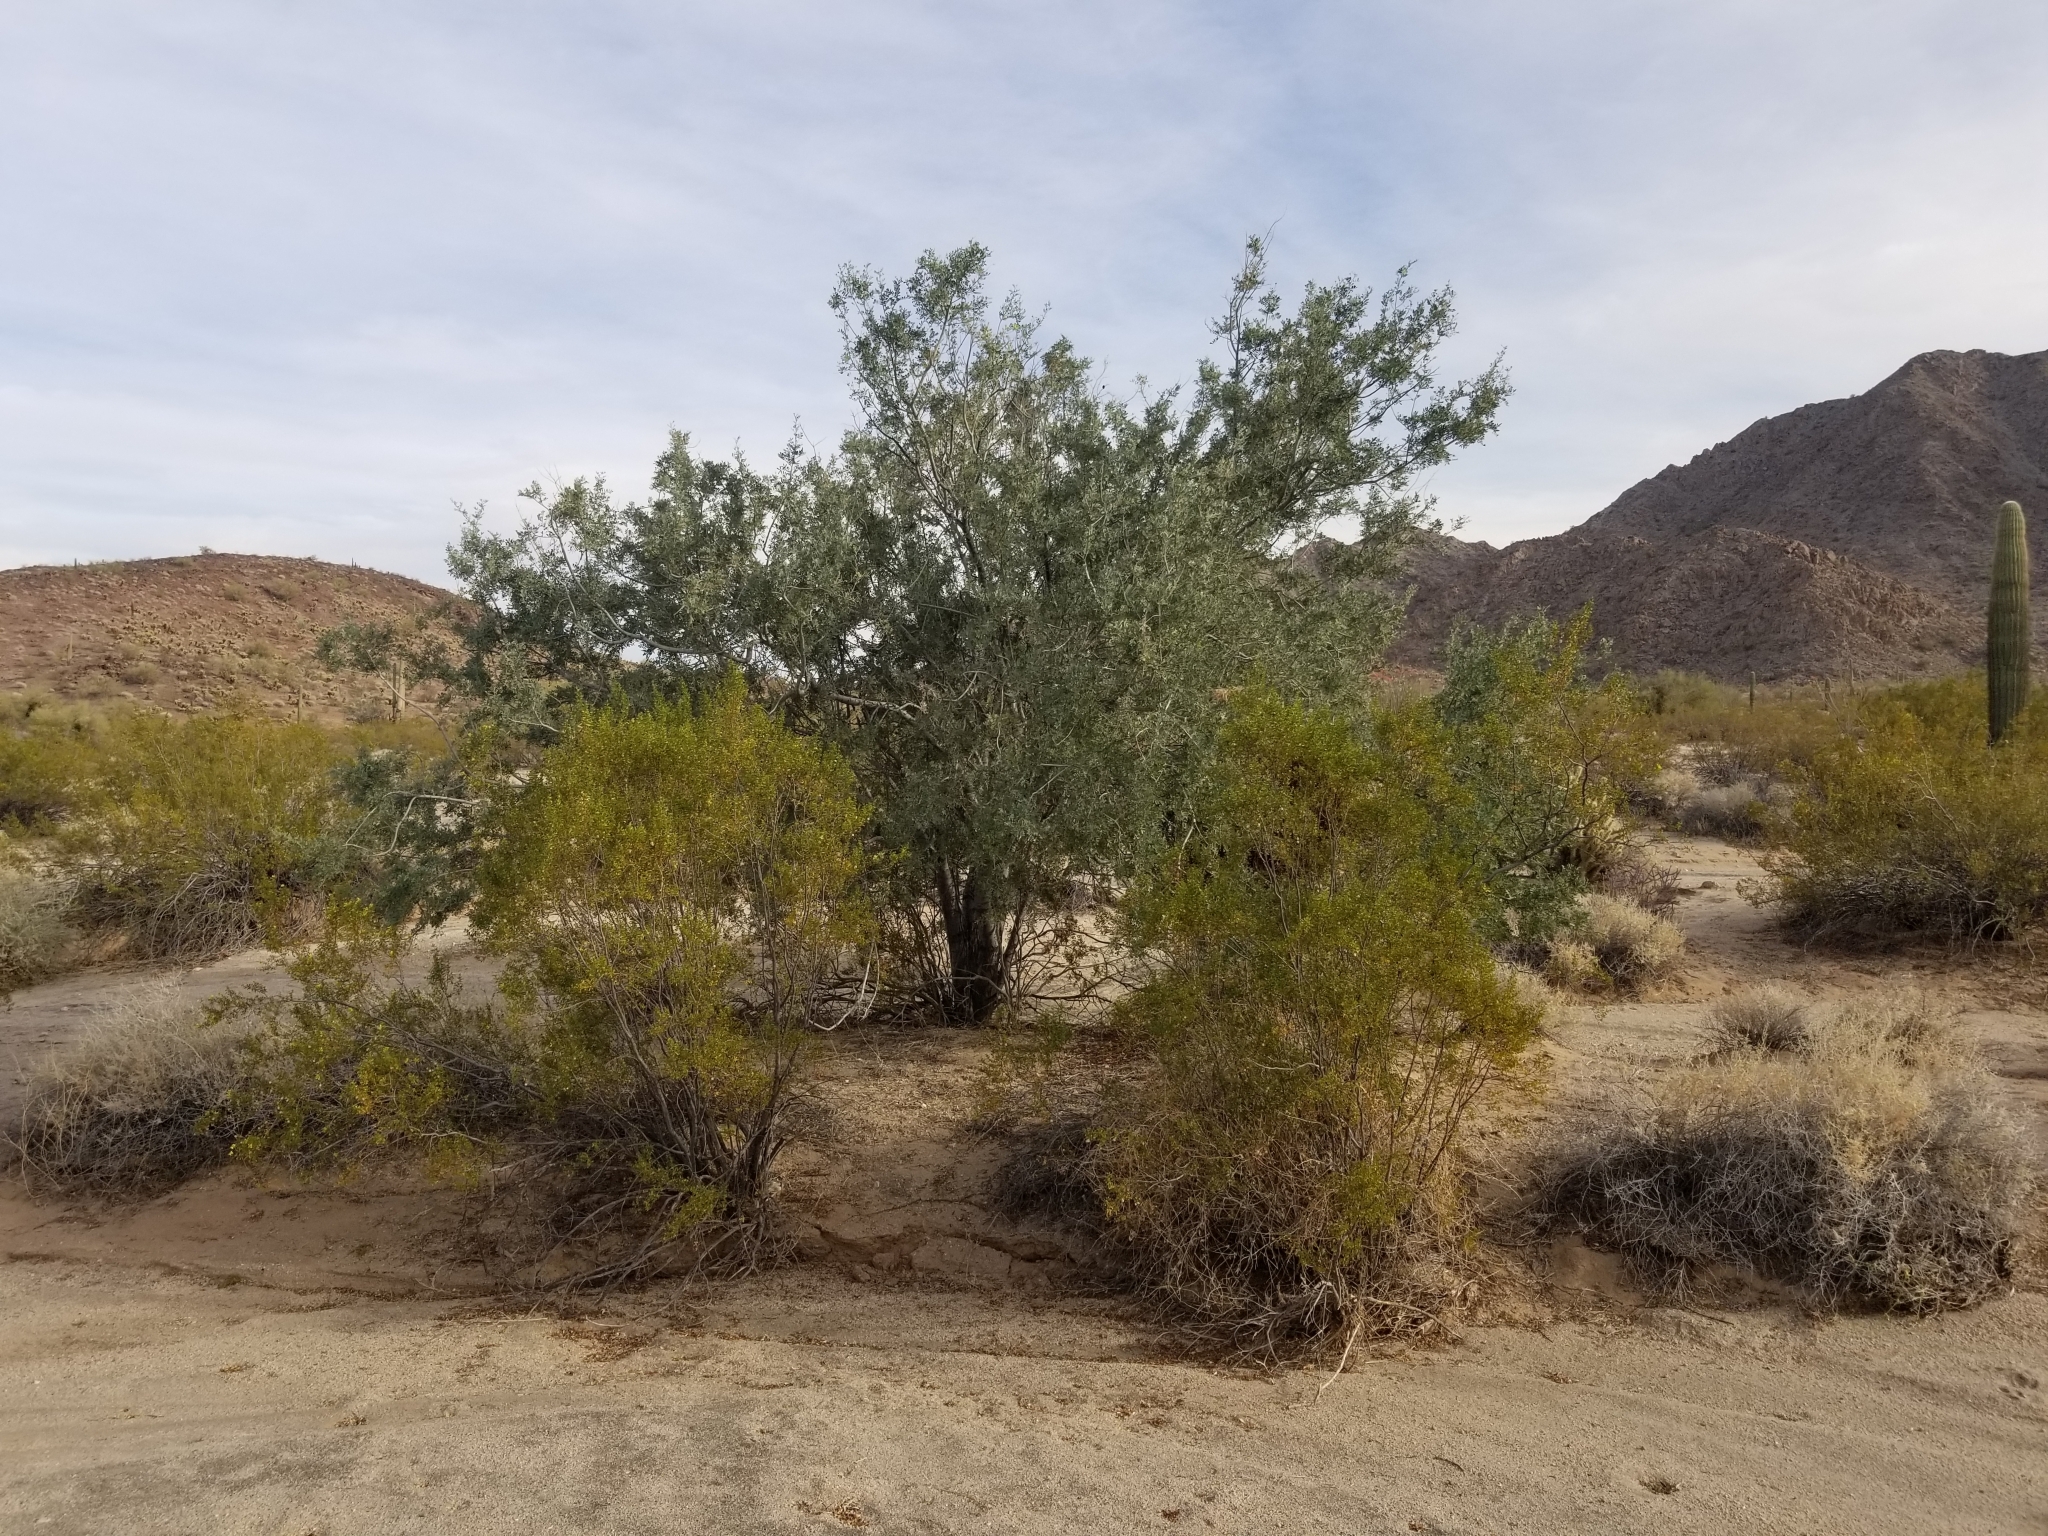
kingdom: Plantae
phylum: Tracheophyta
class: Magnoliopsida
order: Fabales
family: Fabaceae
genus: Olneya
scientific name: Olneya tesota
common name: Desert ironwood
